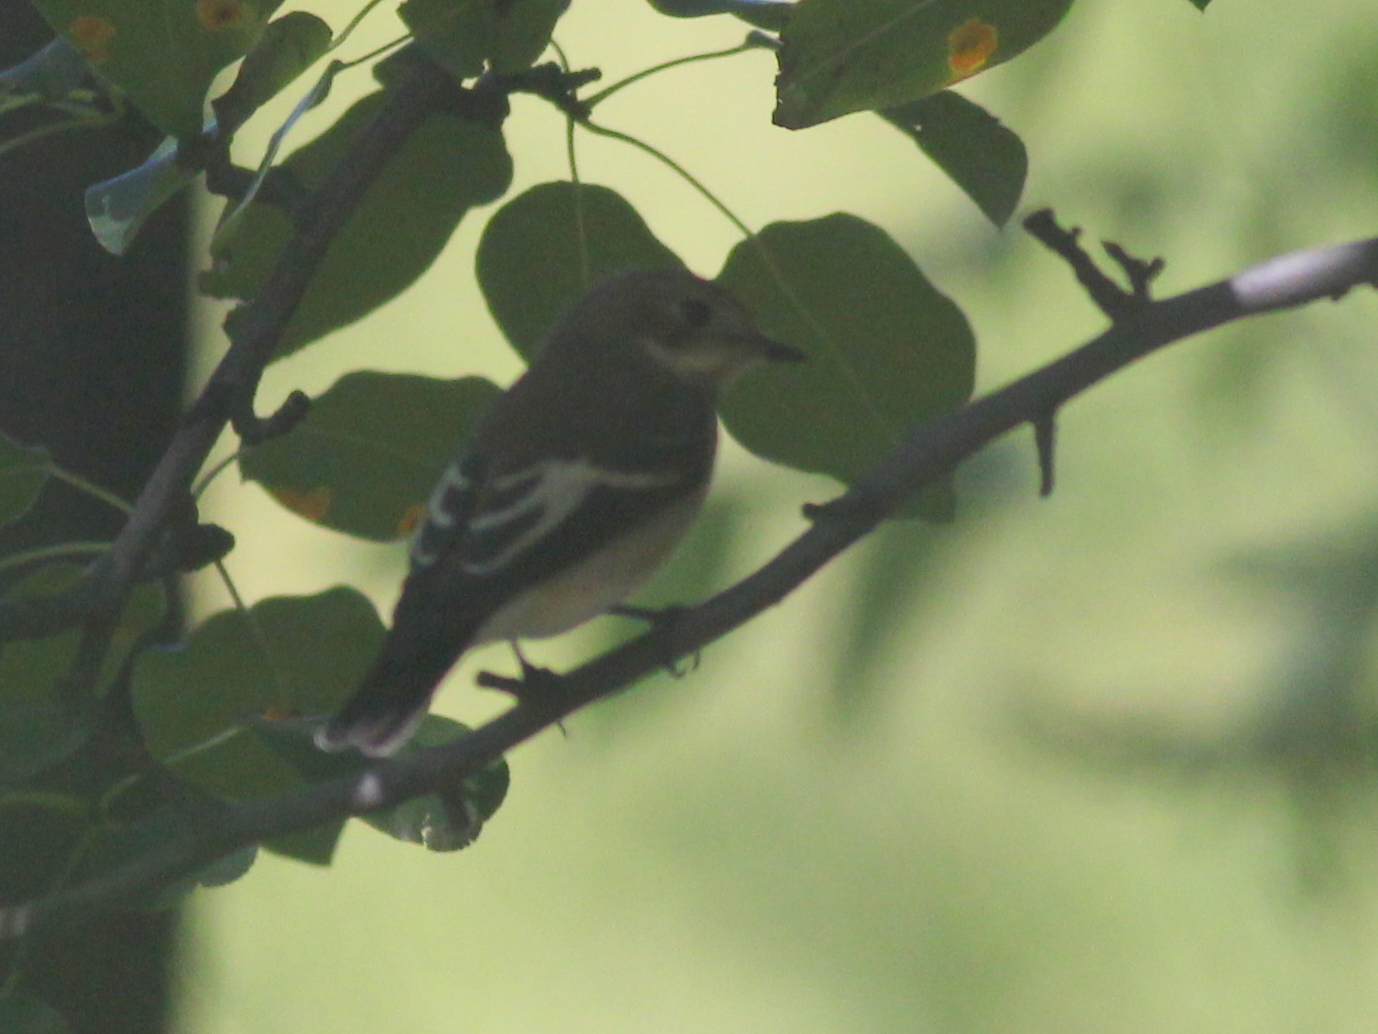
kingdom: Animalia
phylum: Chordata
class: Aves
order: Passeriformes
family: Muscicapidae
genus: Ficedula
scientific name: Ficedula hypoleuca
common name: European pied flycatcher
